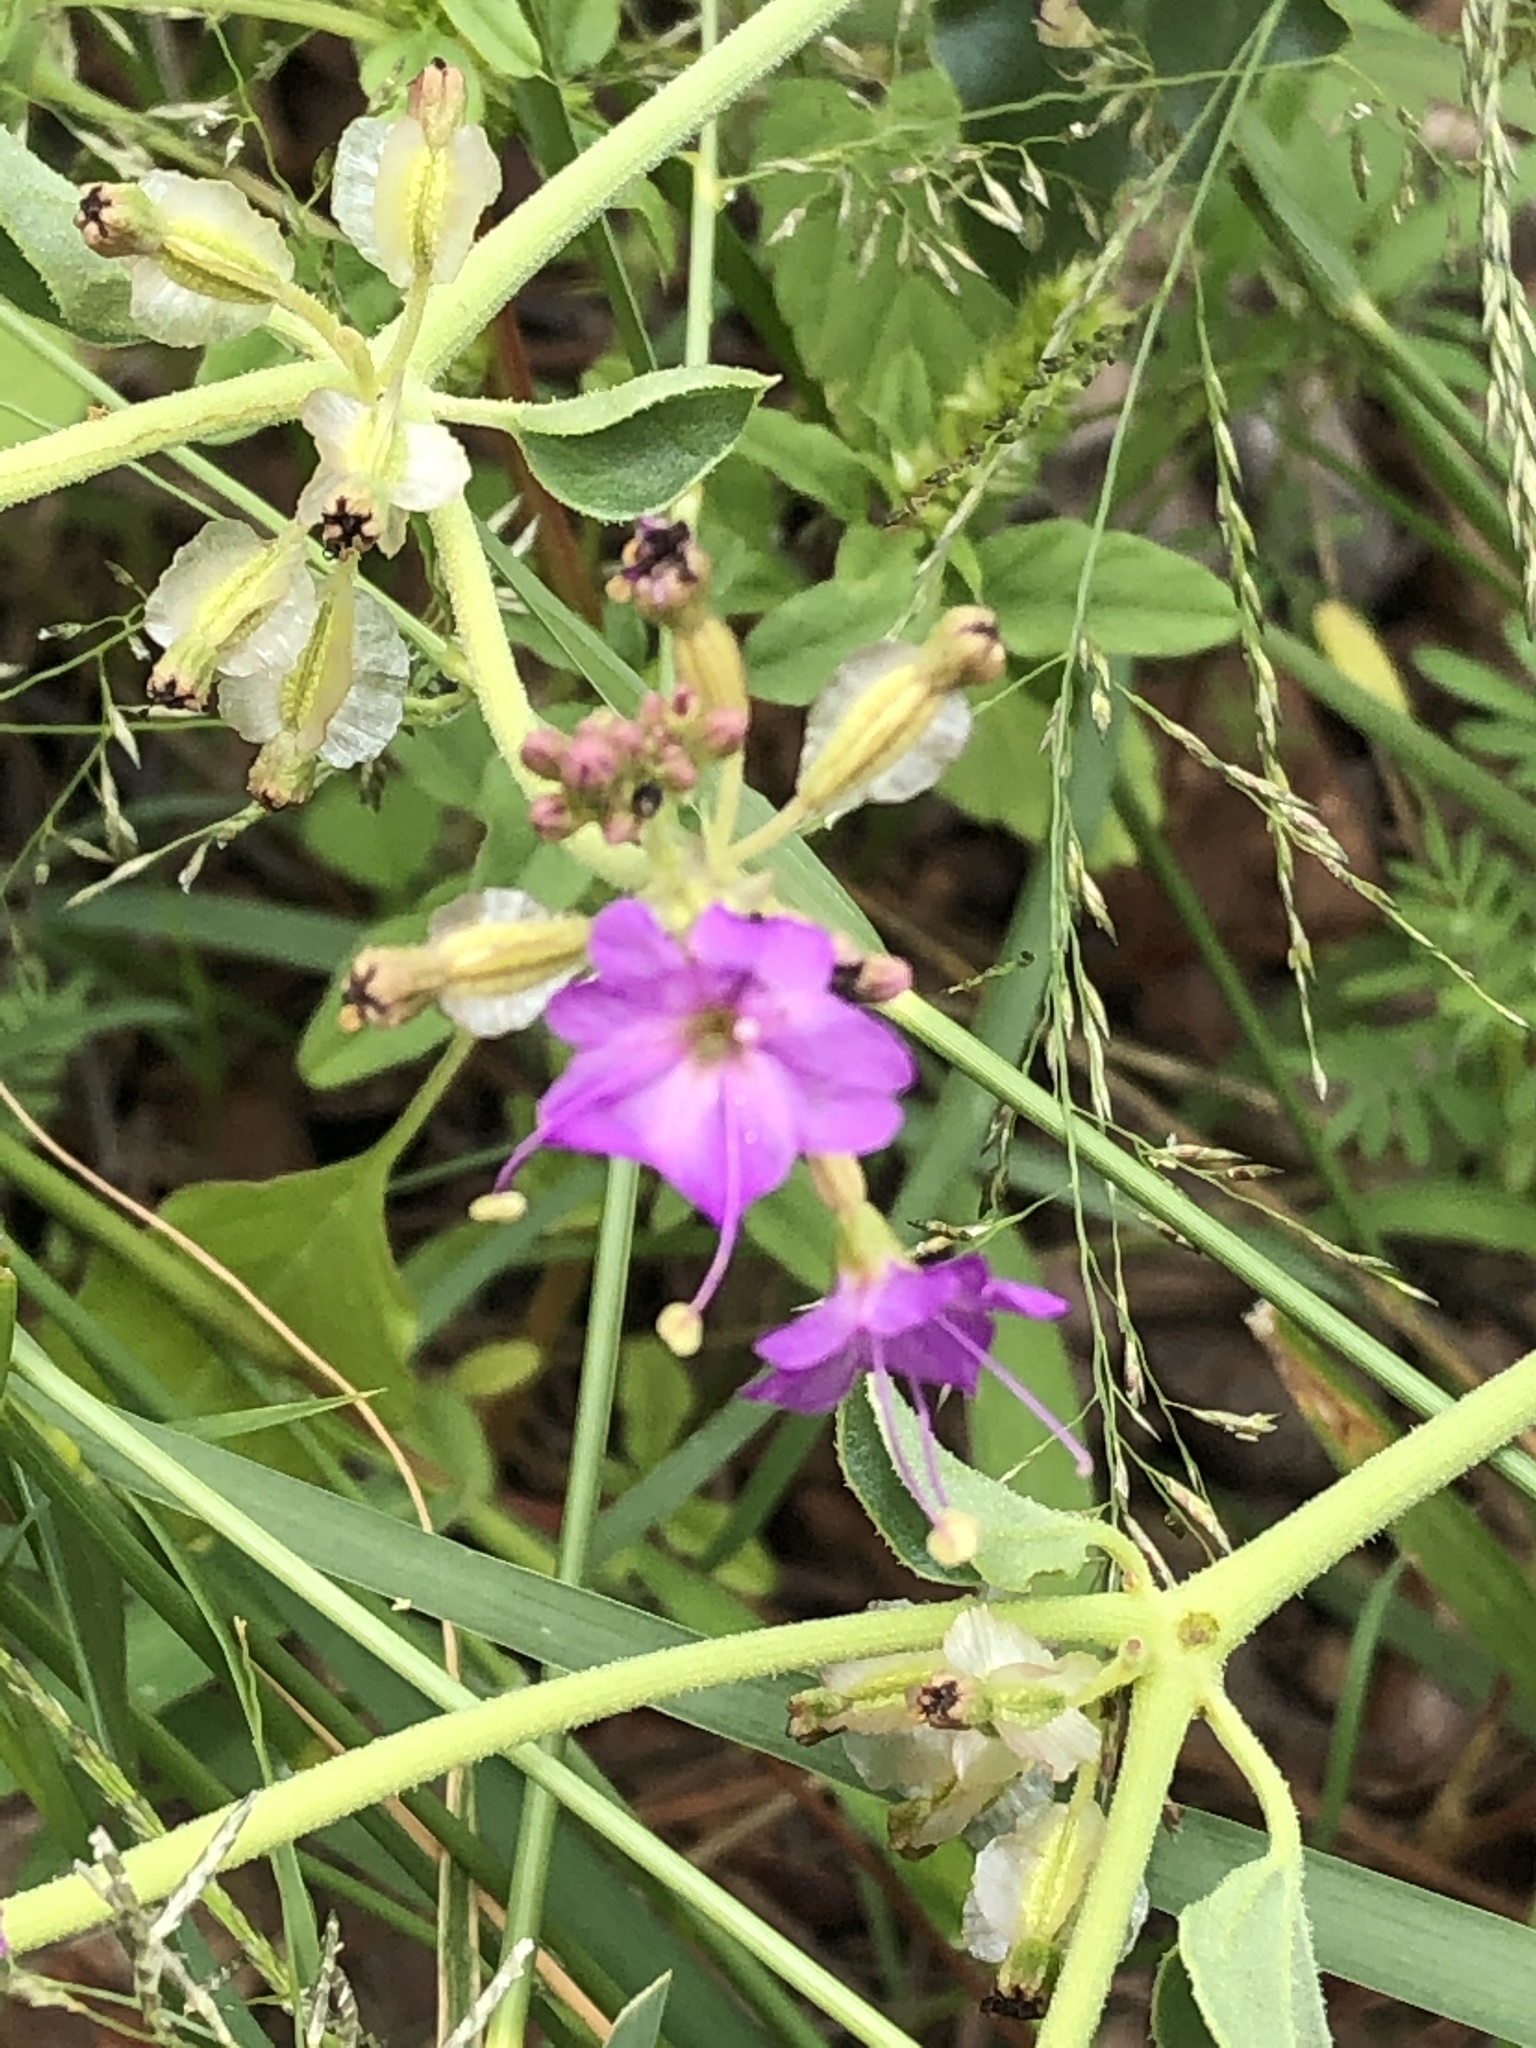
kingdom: Plantae
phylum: Tracheophyta
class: Magnoliopsida
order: Caryophyllales
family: Nyctaginaceae
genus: Acleisanthes
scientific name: Acleisanthes chenopodioides
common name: Goosefoot moonpod
